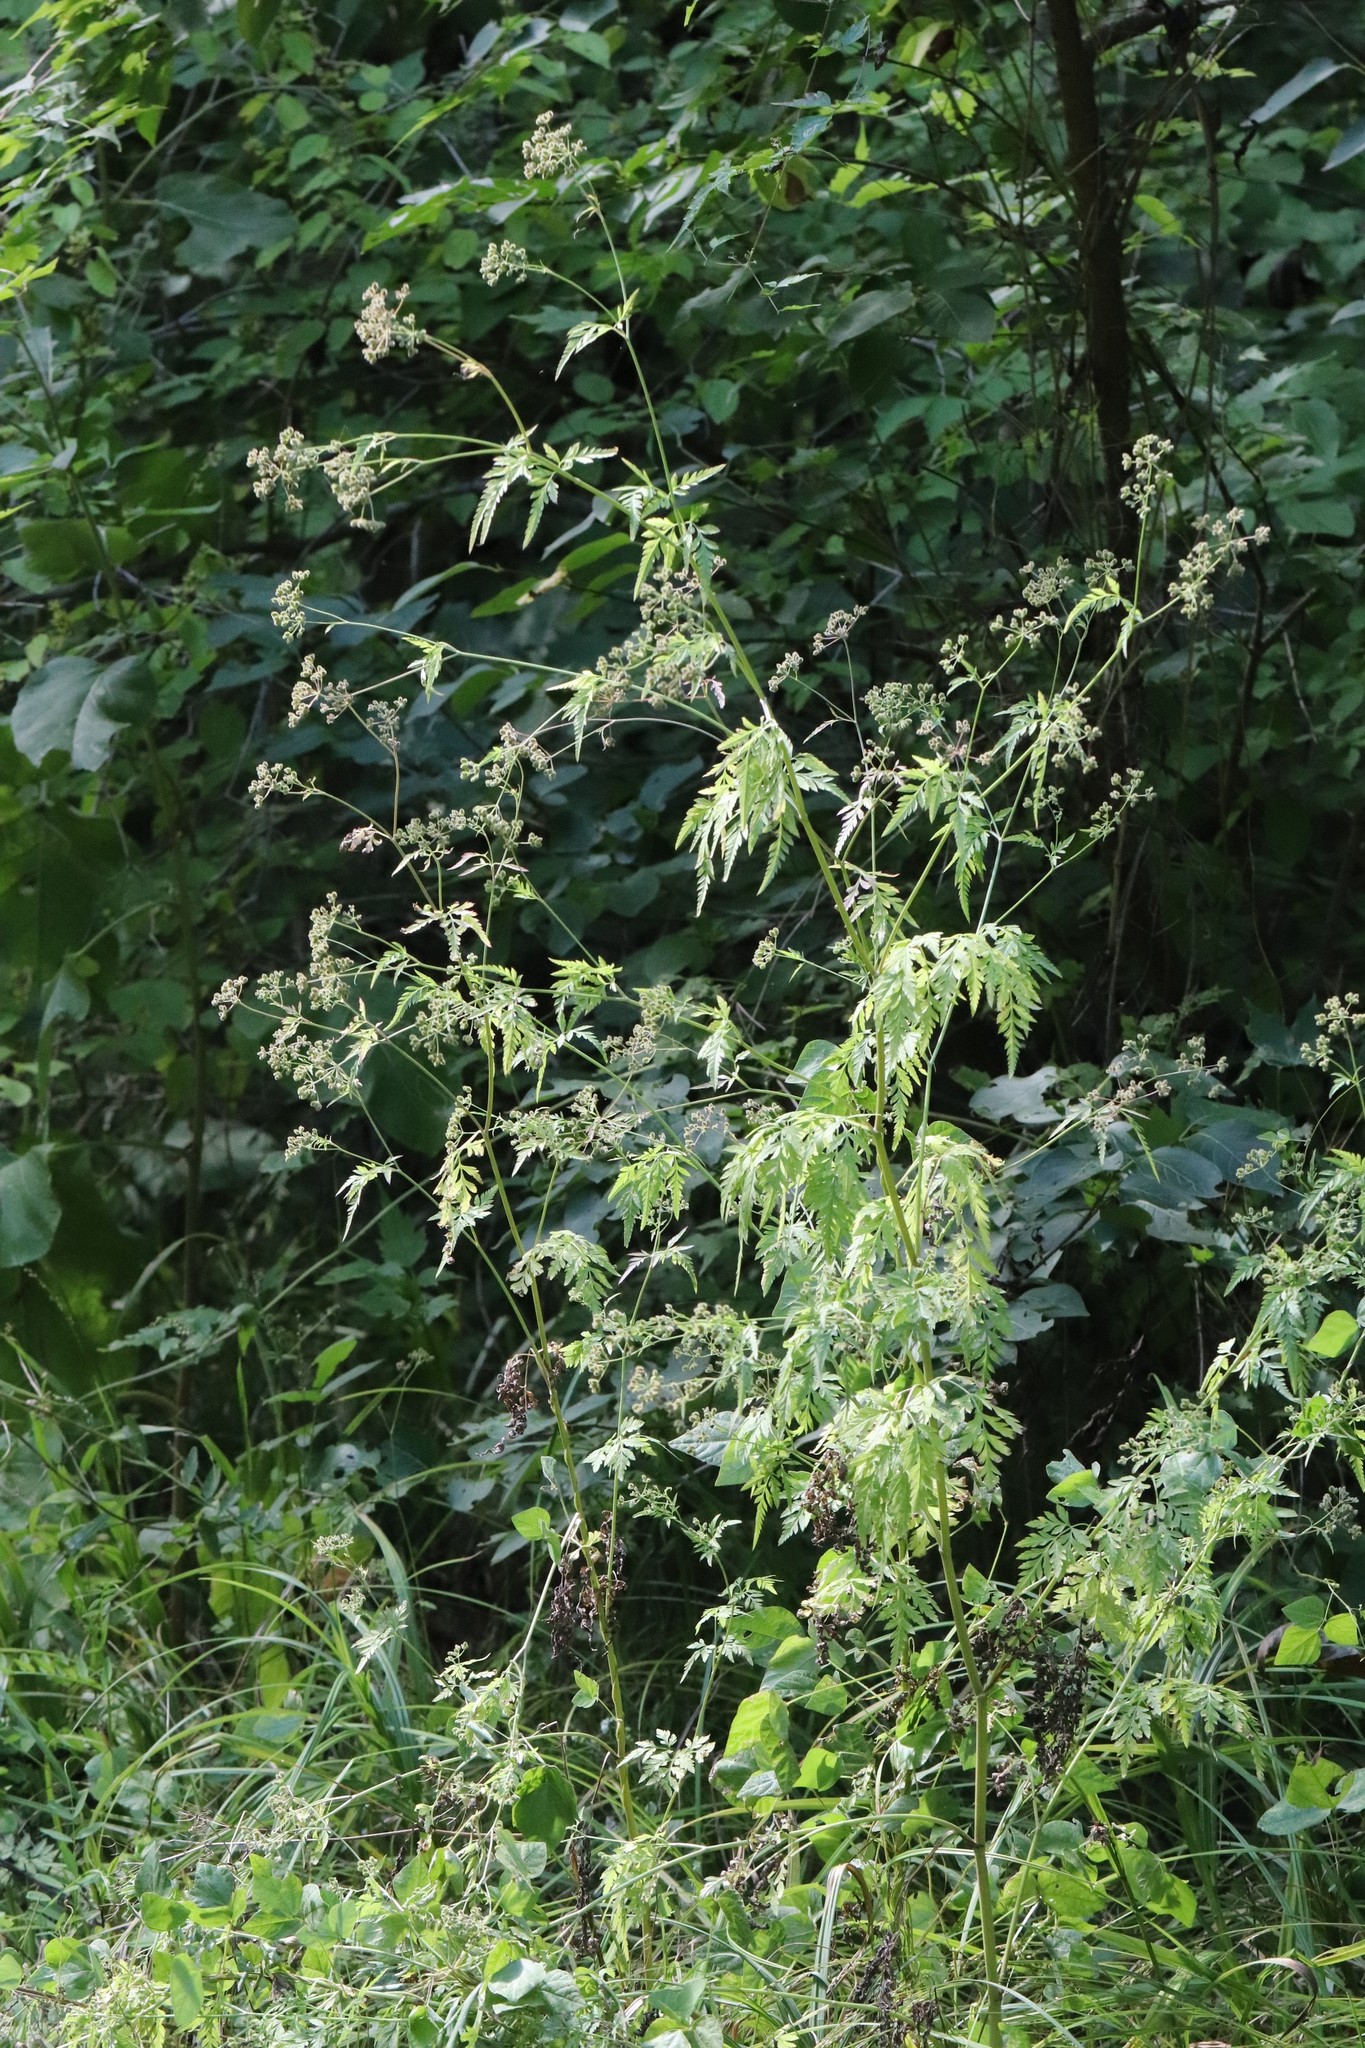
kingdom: Plantae
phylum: Tracheophyta
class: Magnoliopsida
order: Apiales
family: Apiaceae
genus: Torilis
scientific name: Torilis japonica
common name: Upright hedge-parsley
